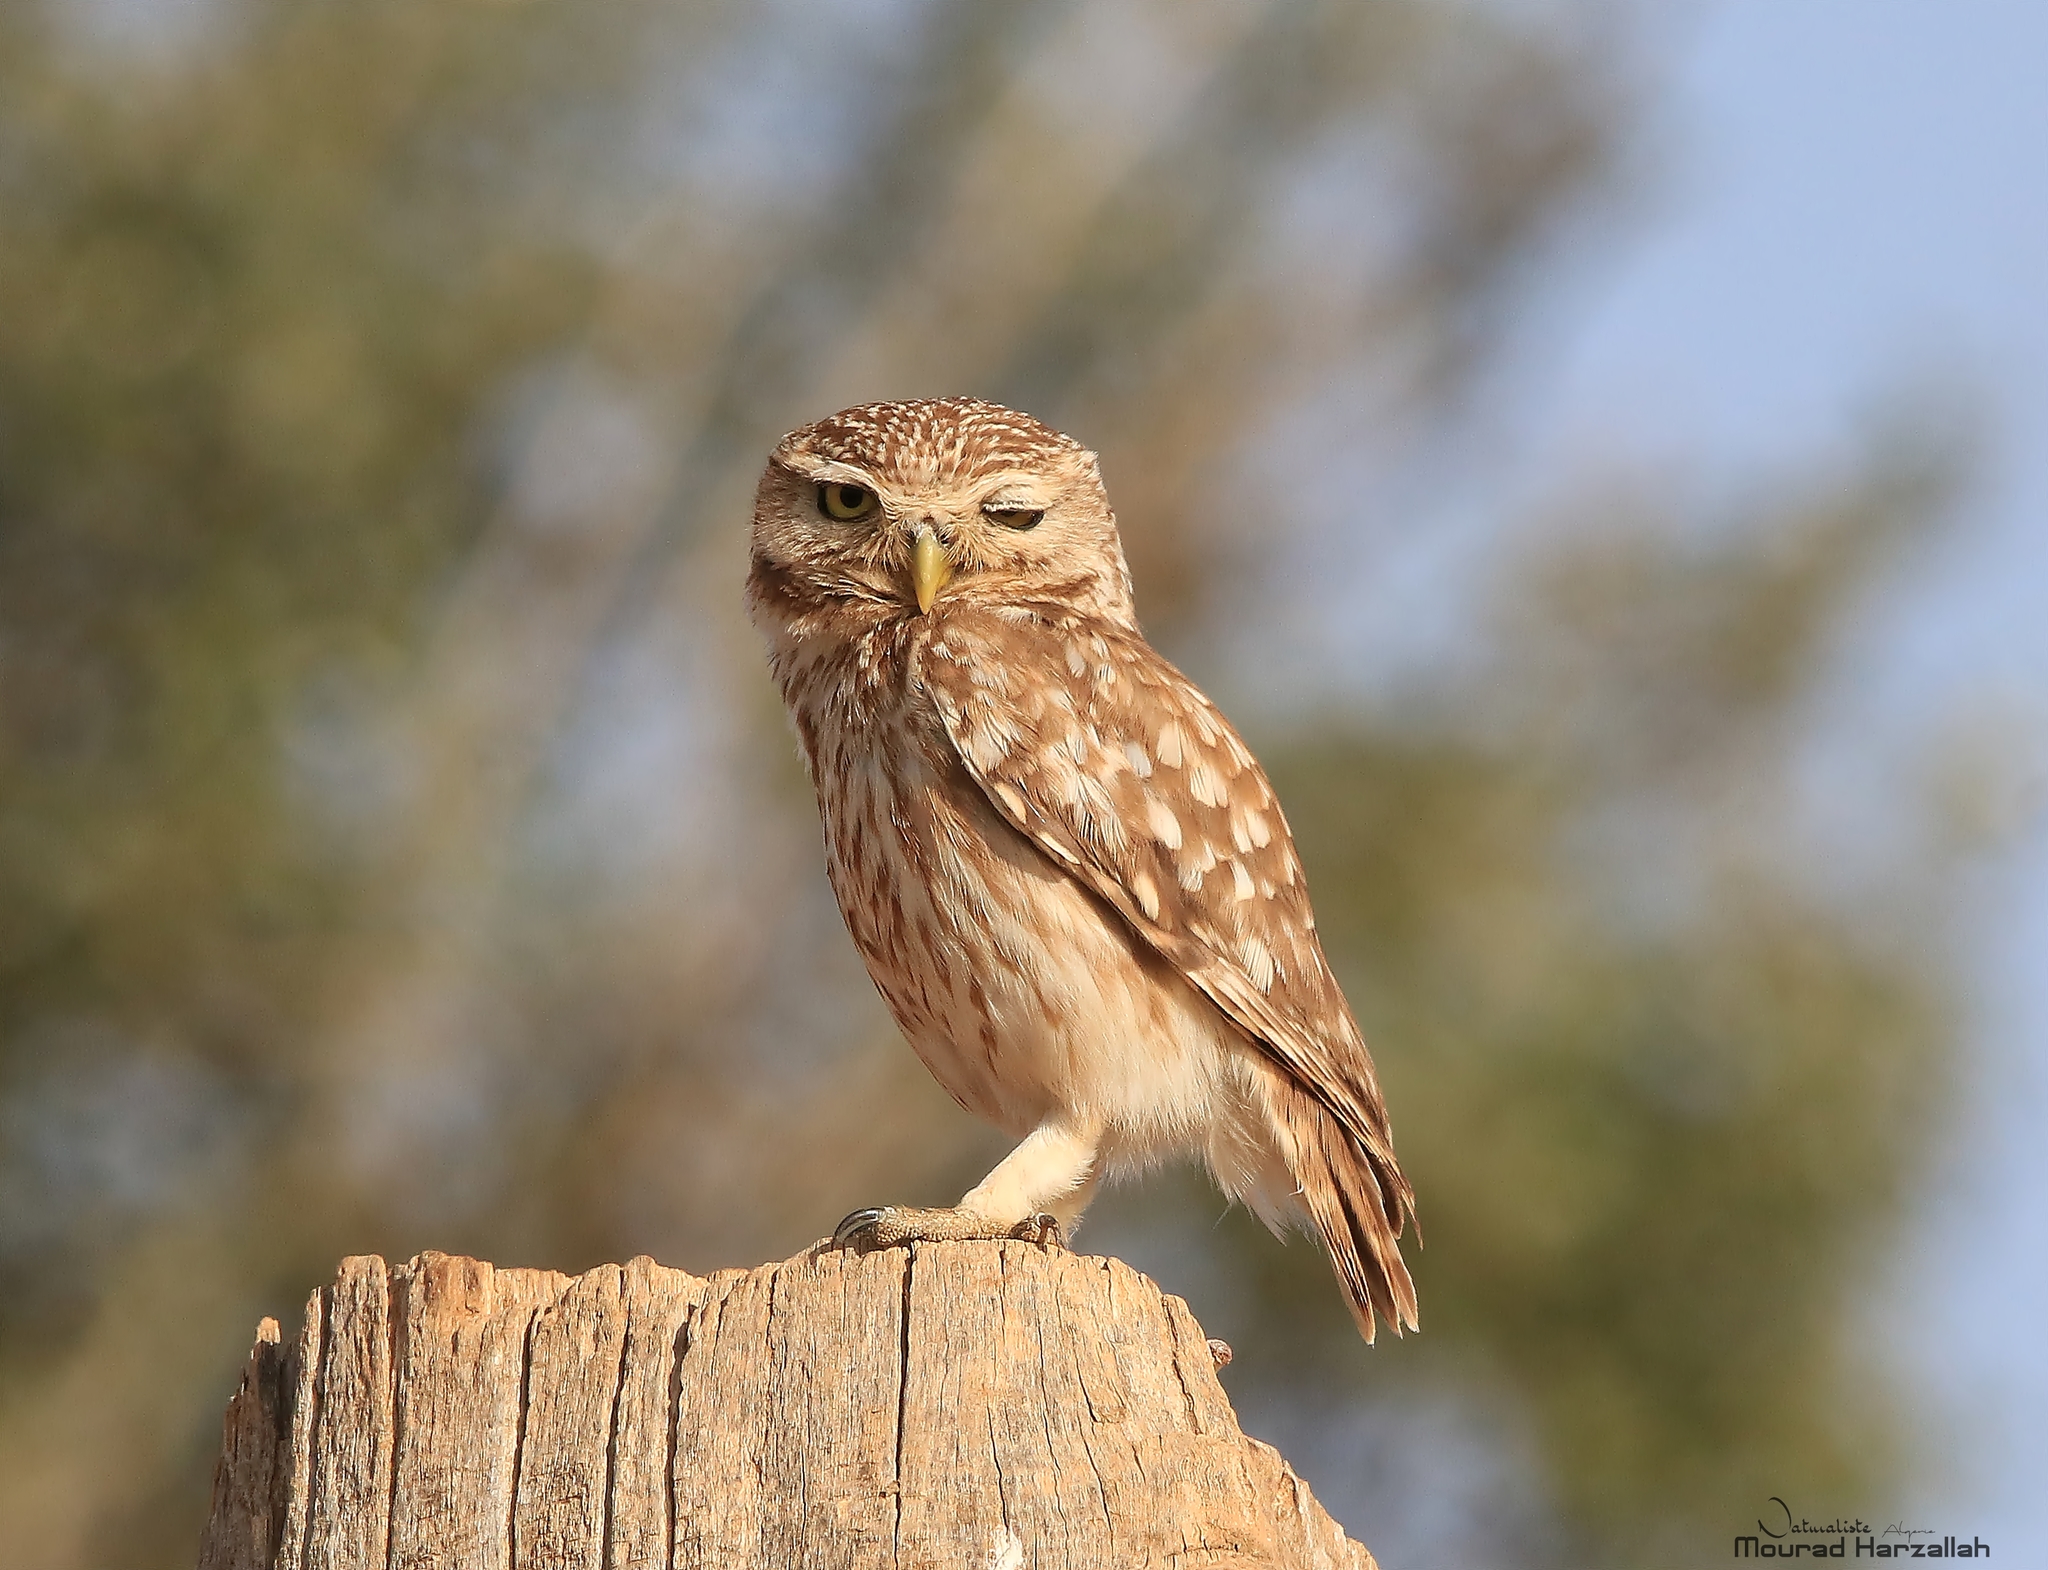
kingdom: Animalia
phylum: Chordata
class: Aves
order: Strigiformes
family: Strigidae
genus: Athene
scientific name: Athene noctua
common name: Little owl
